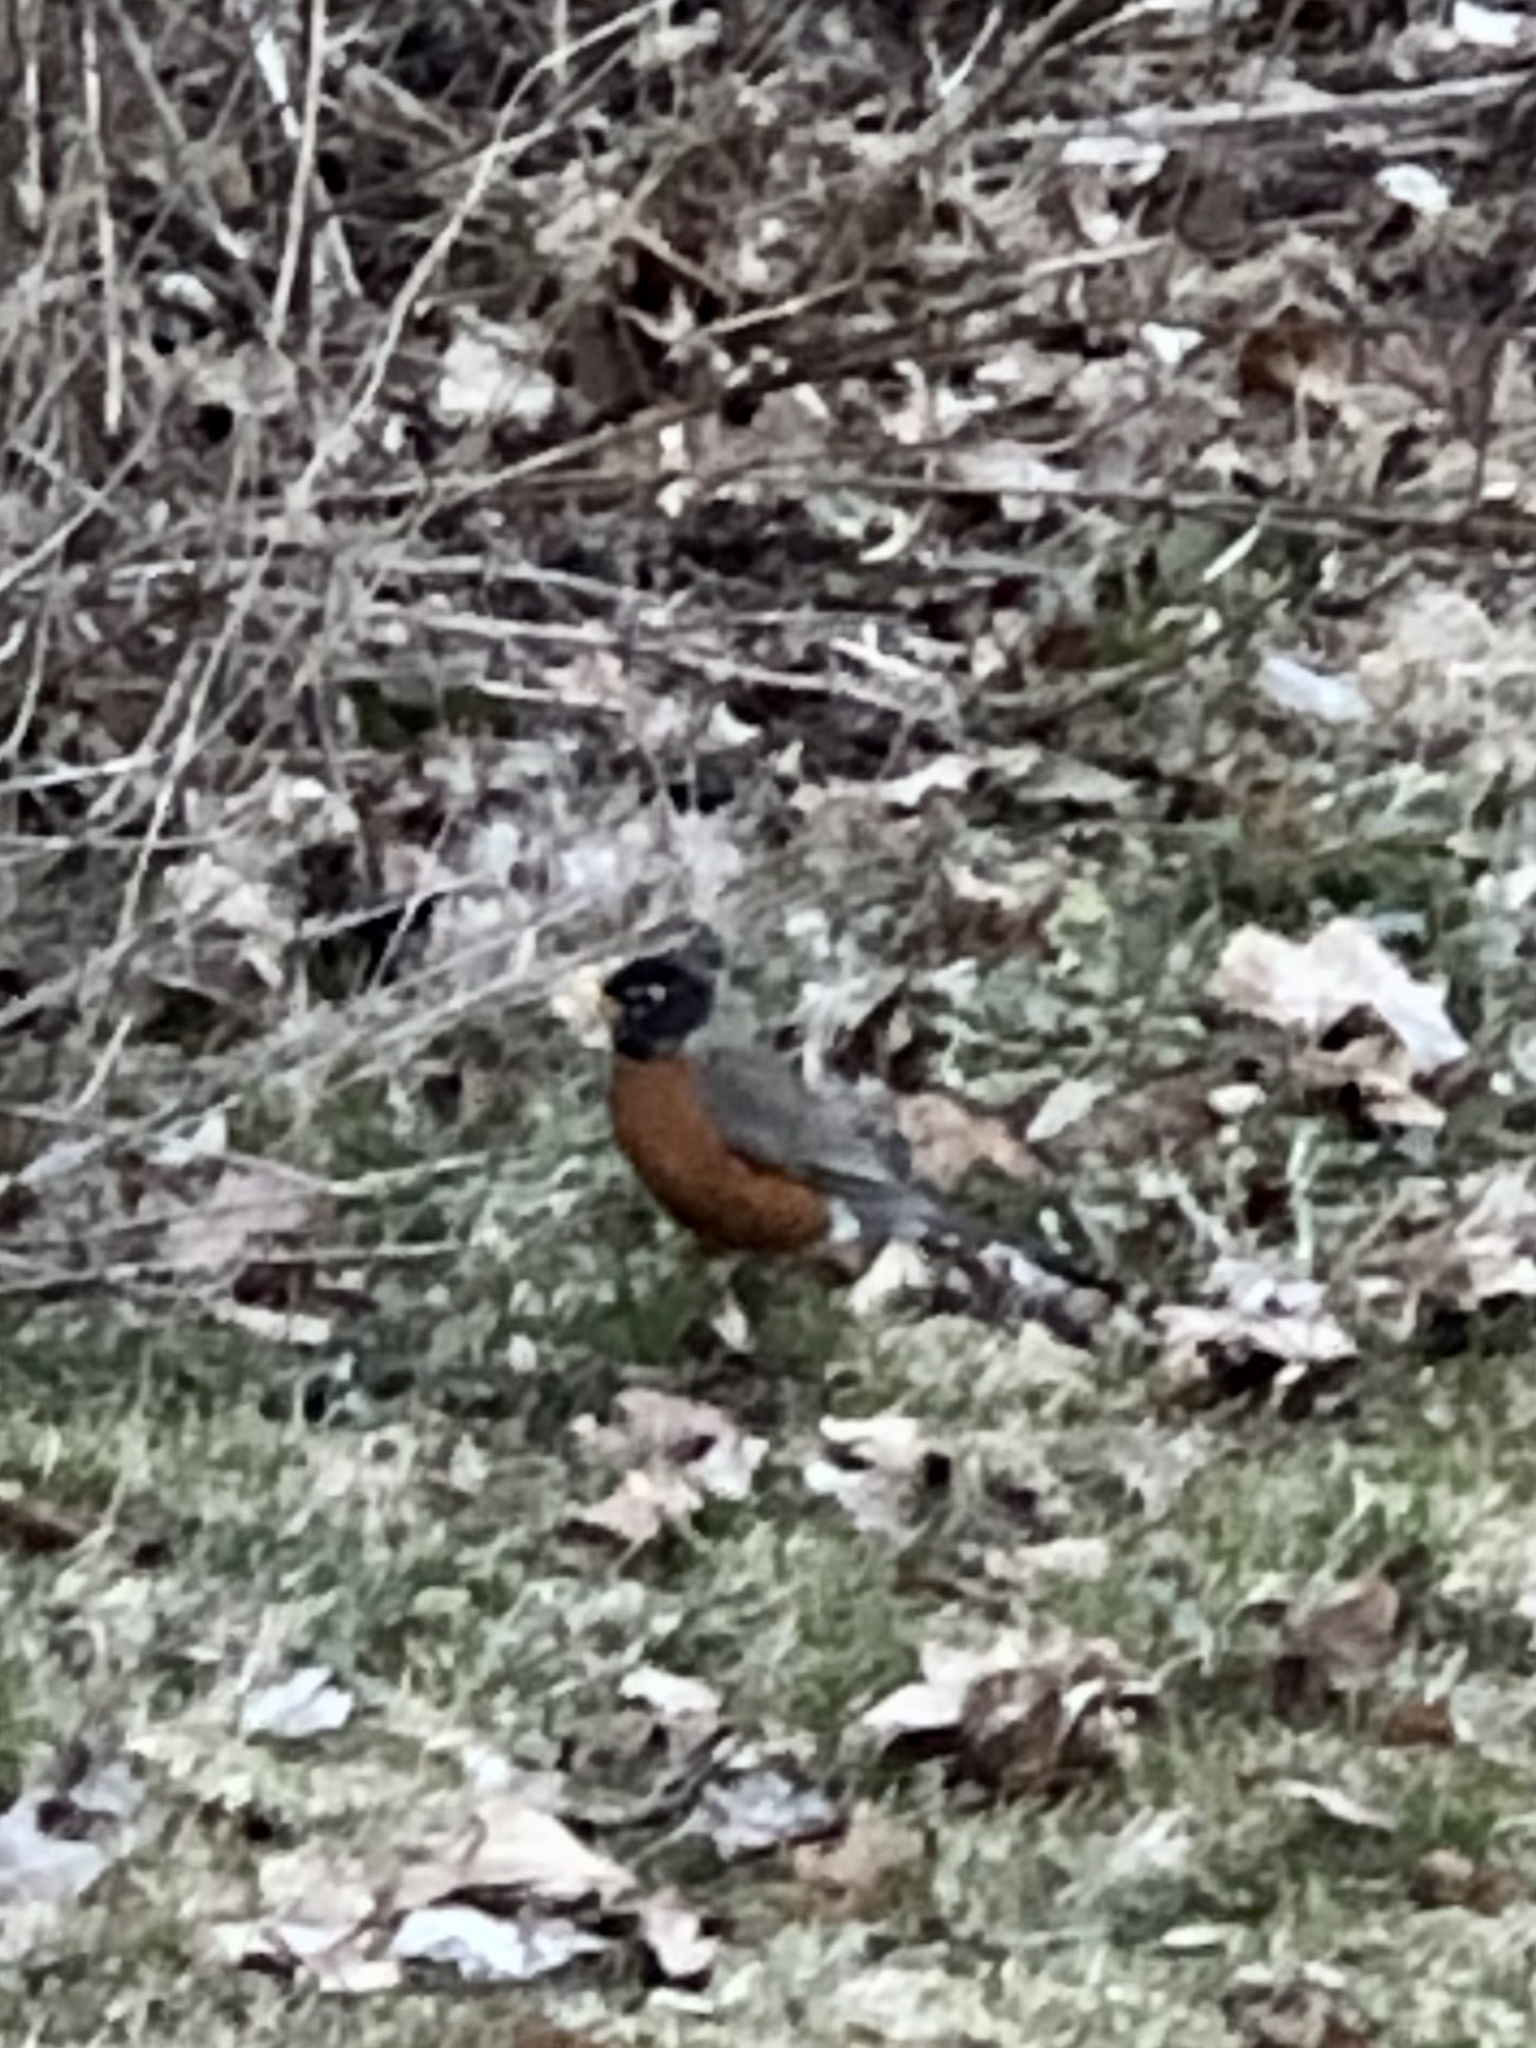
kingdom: Animalia
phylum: Chordata
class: Aves
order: Passeriformes
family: Turdidae
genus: Turdus
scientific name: Turdus migratorius
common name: American robin
